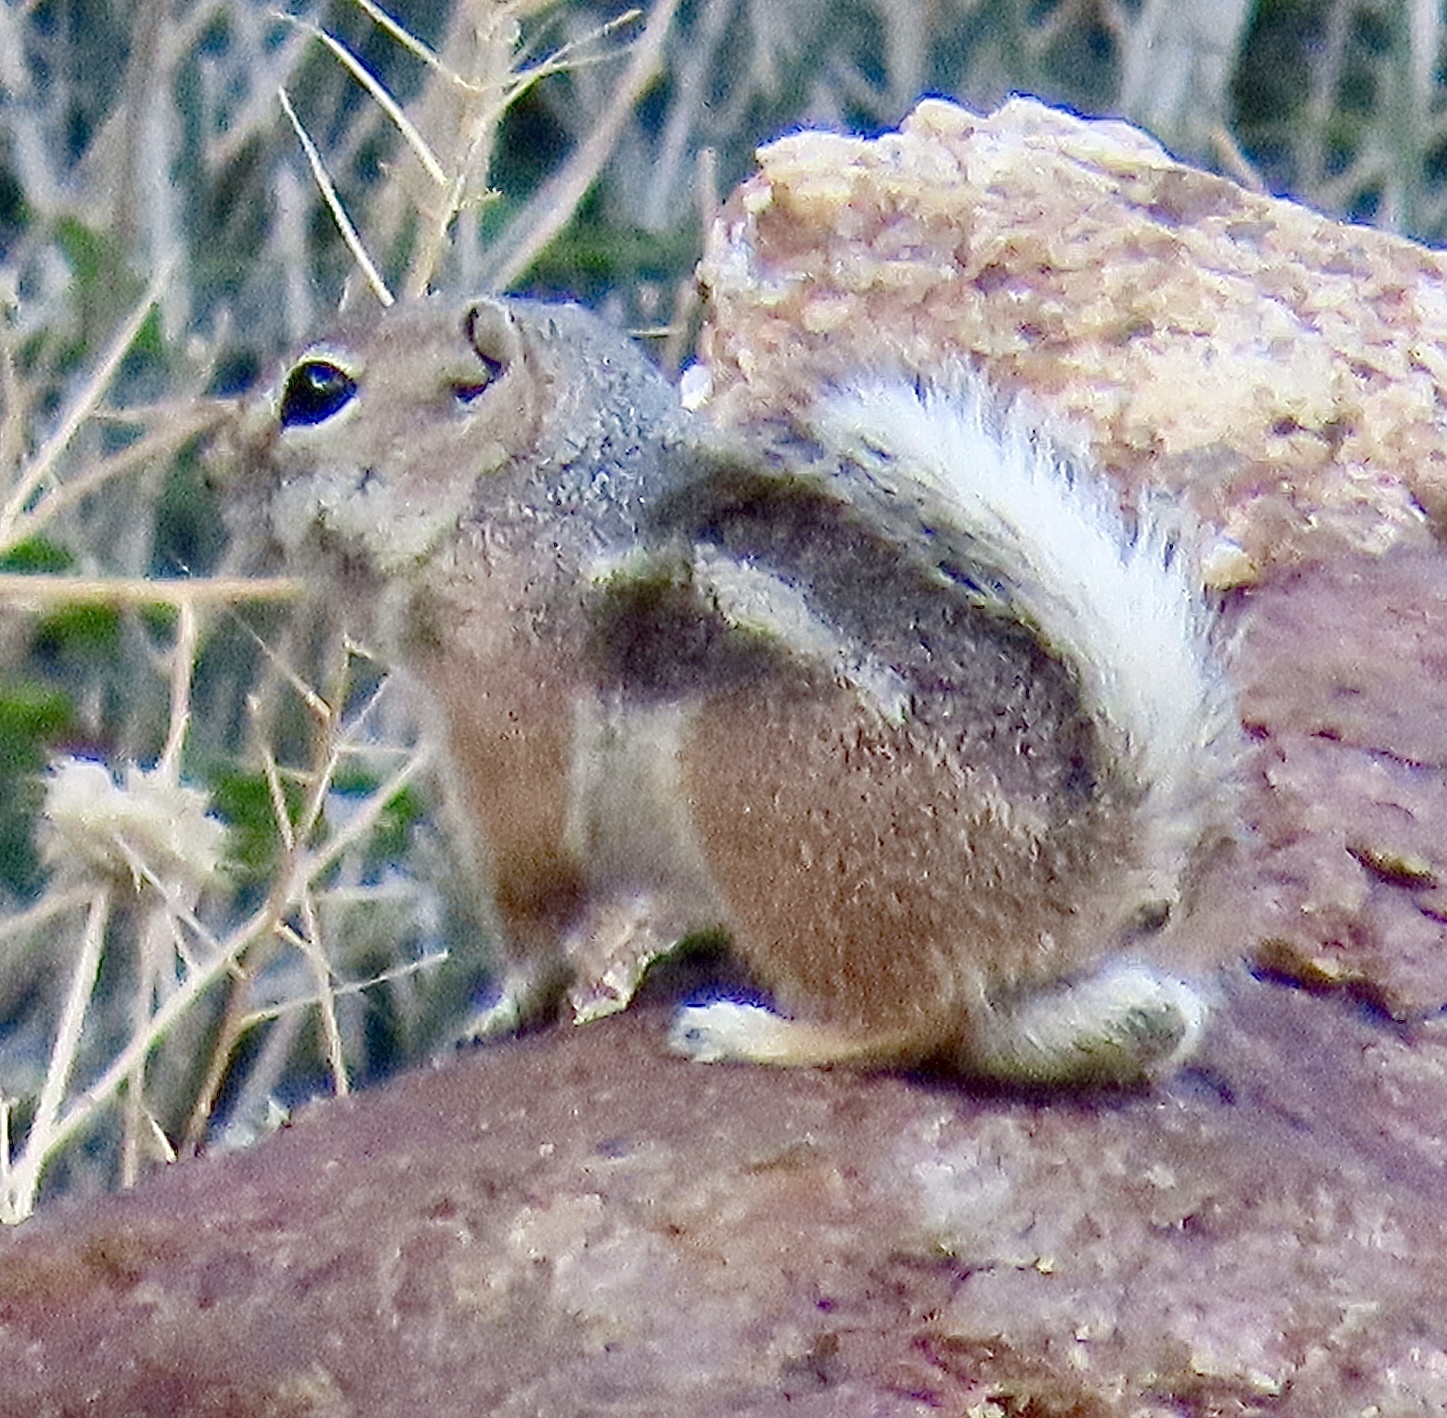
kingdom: Animalia
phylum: Chordata
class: Mammalia
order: Rodentia
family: Sciuridae
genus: Ammospermophilus
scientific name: Ammospermophilus leucurus
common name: White-tailed antelope squirrel
